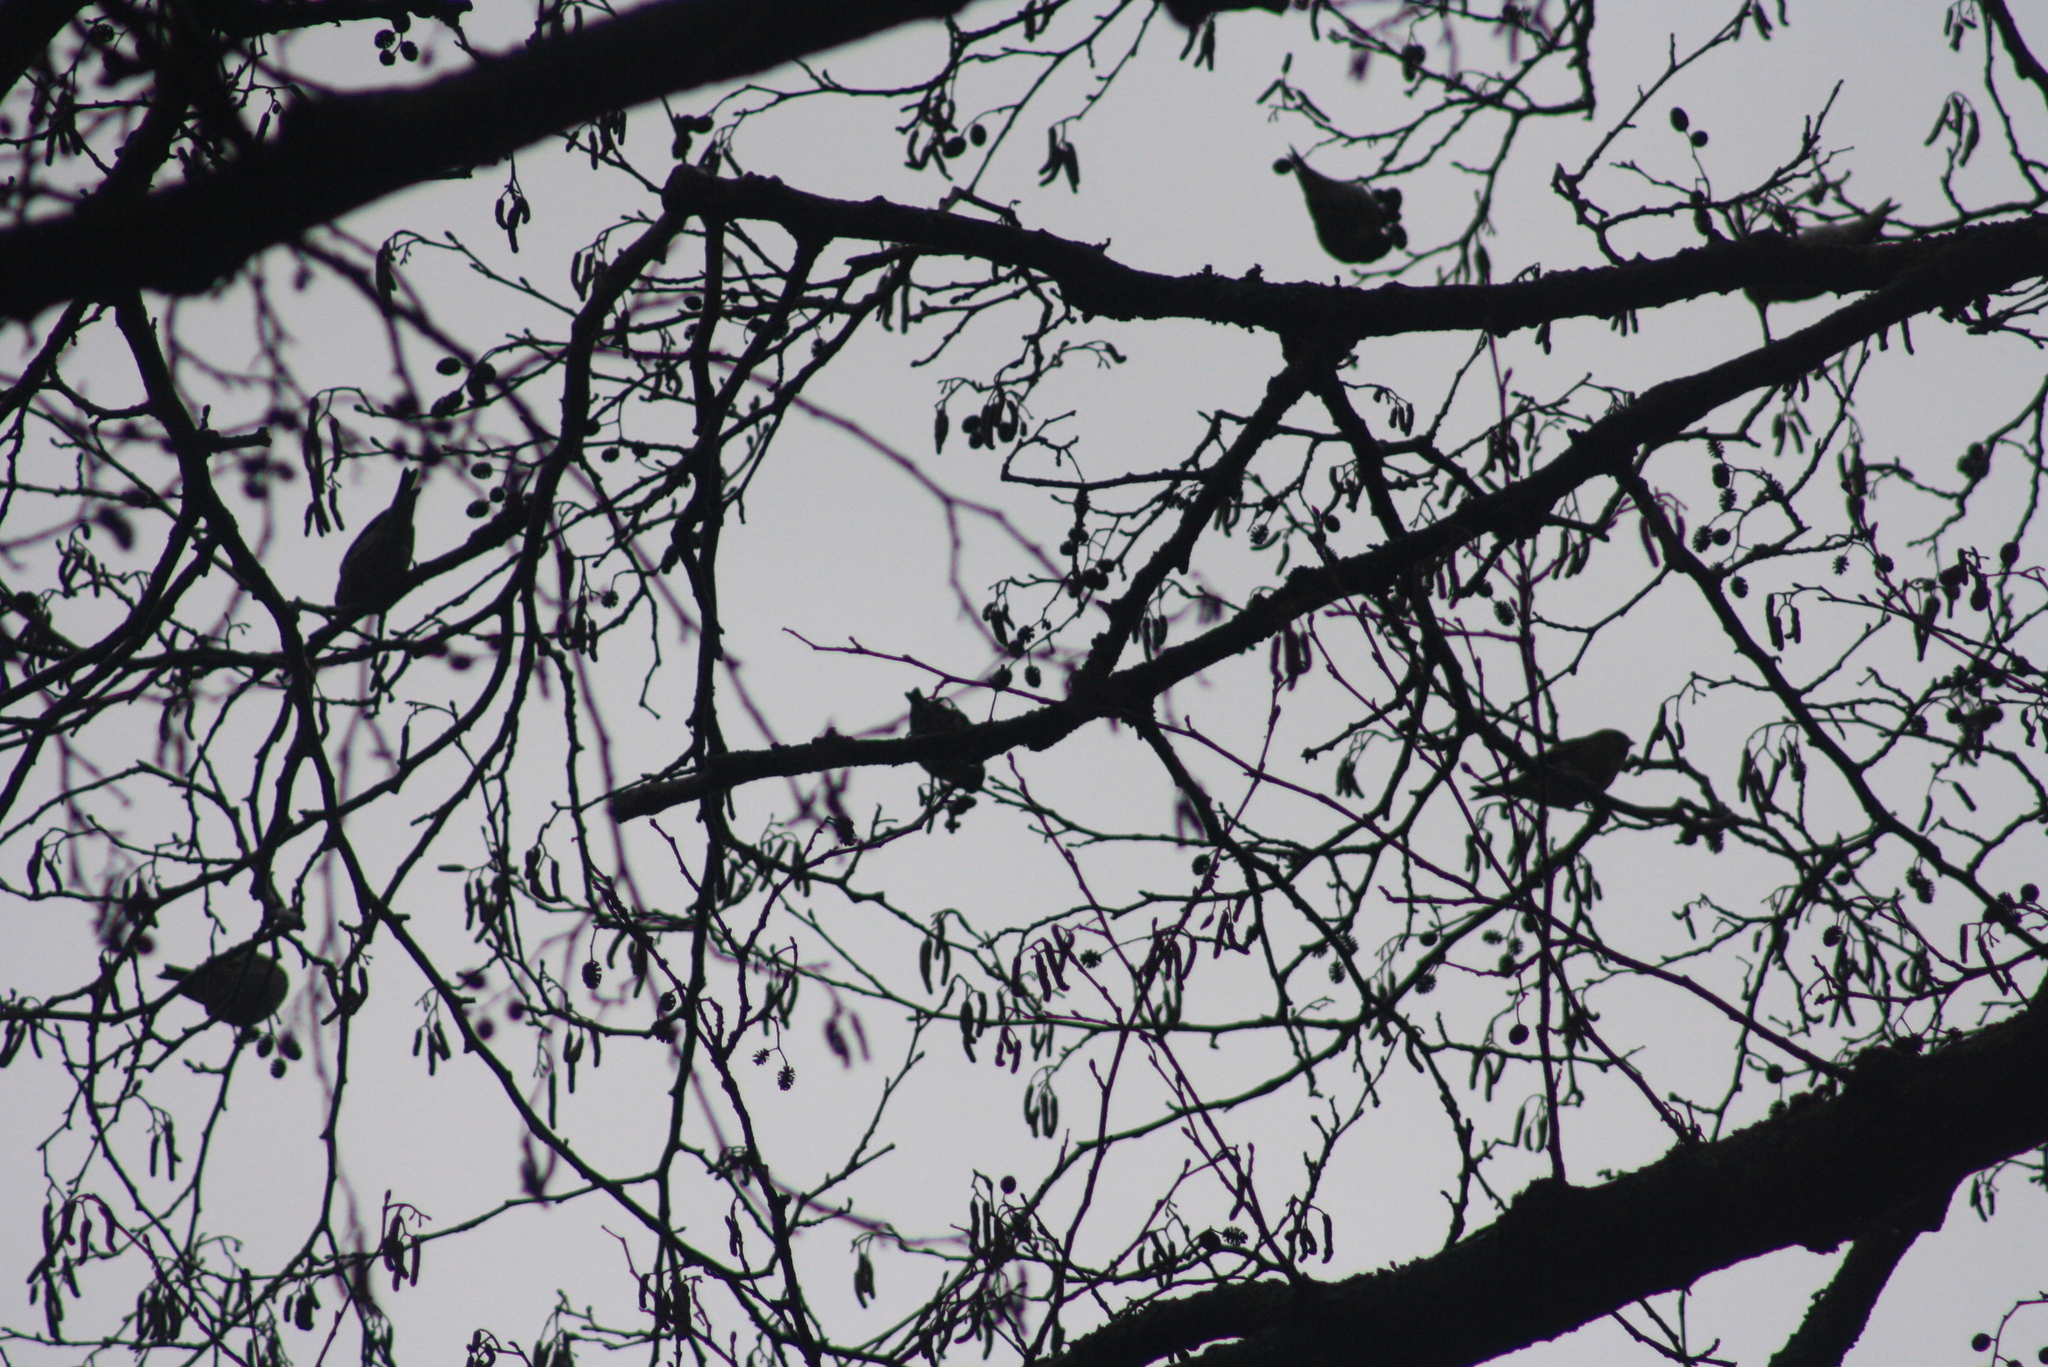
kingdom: Animalia
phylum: Chordata
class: Aves
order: Passeriformes
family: Fringillidae
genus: Spinus
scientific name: Spinus spinus
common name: Eurasian siskin
